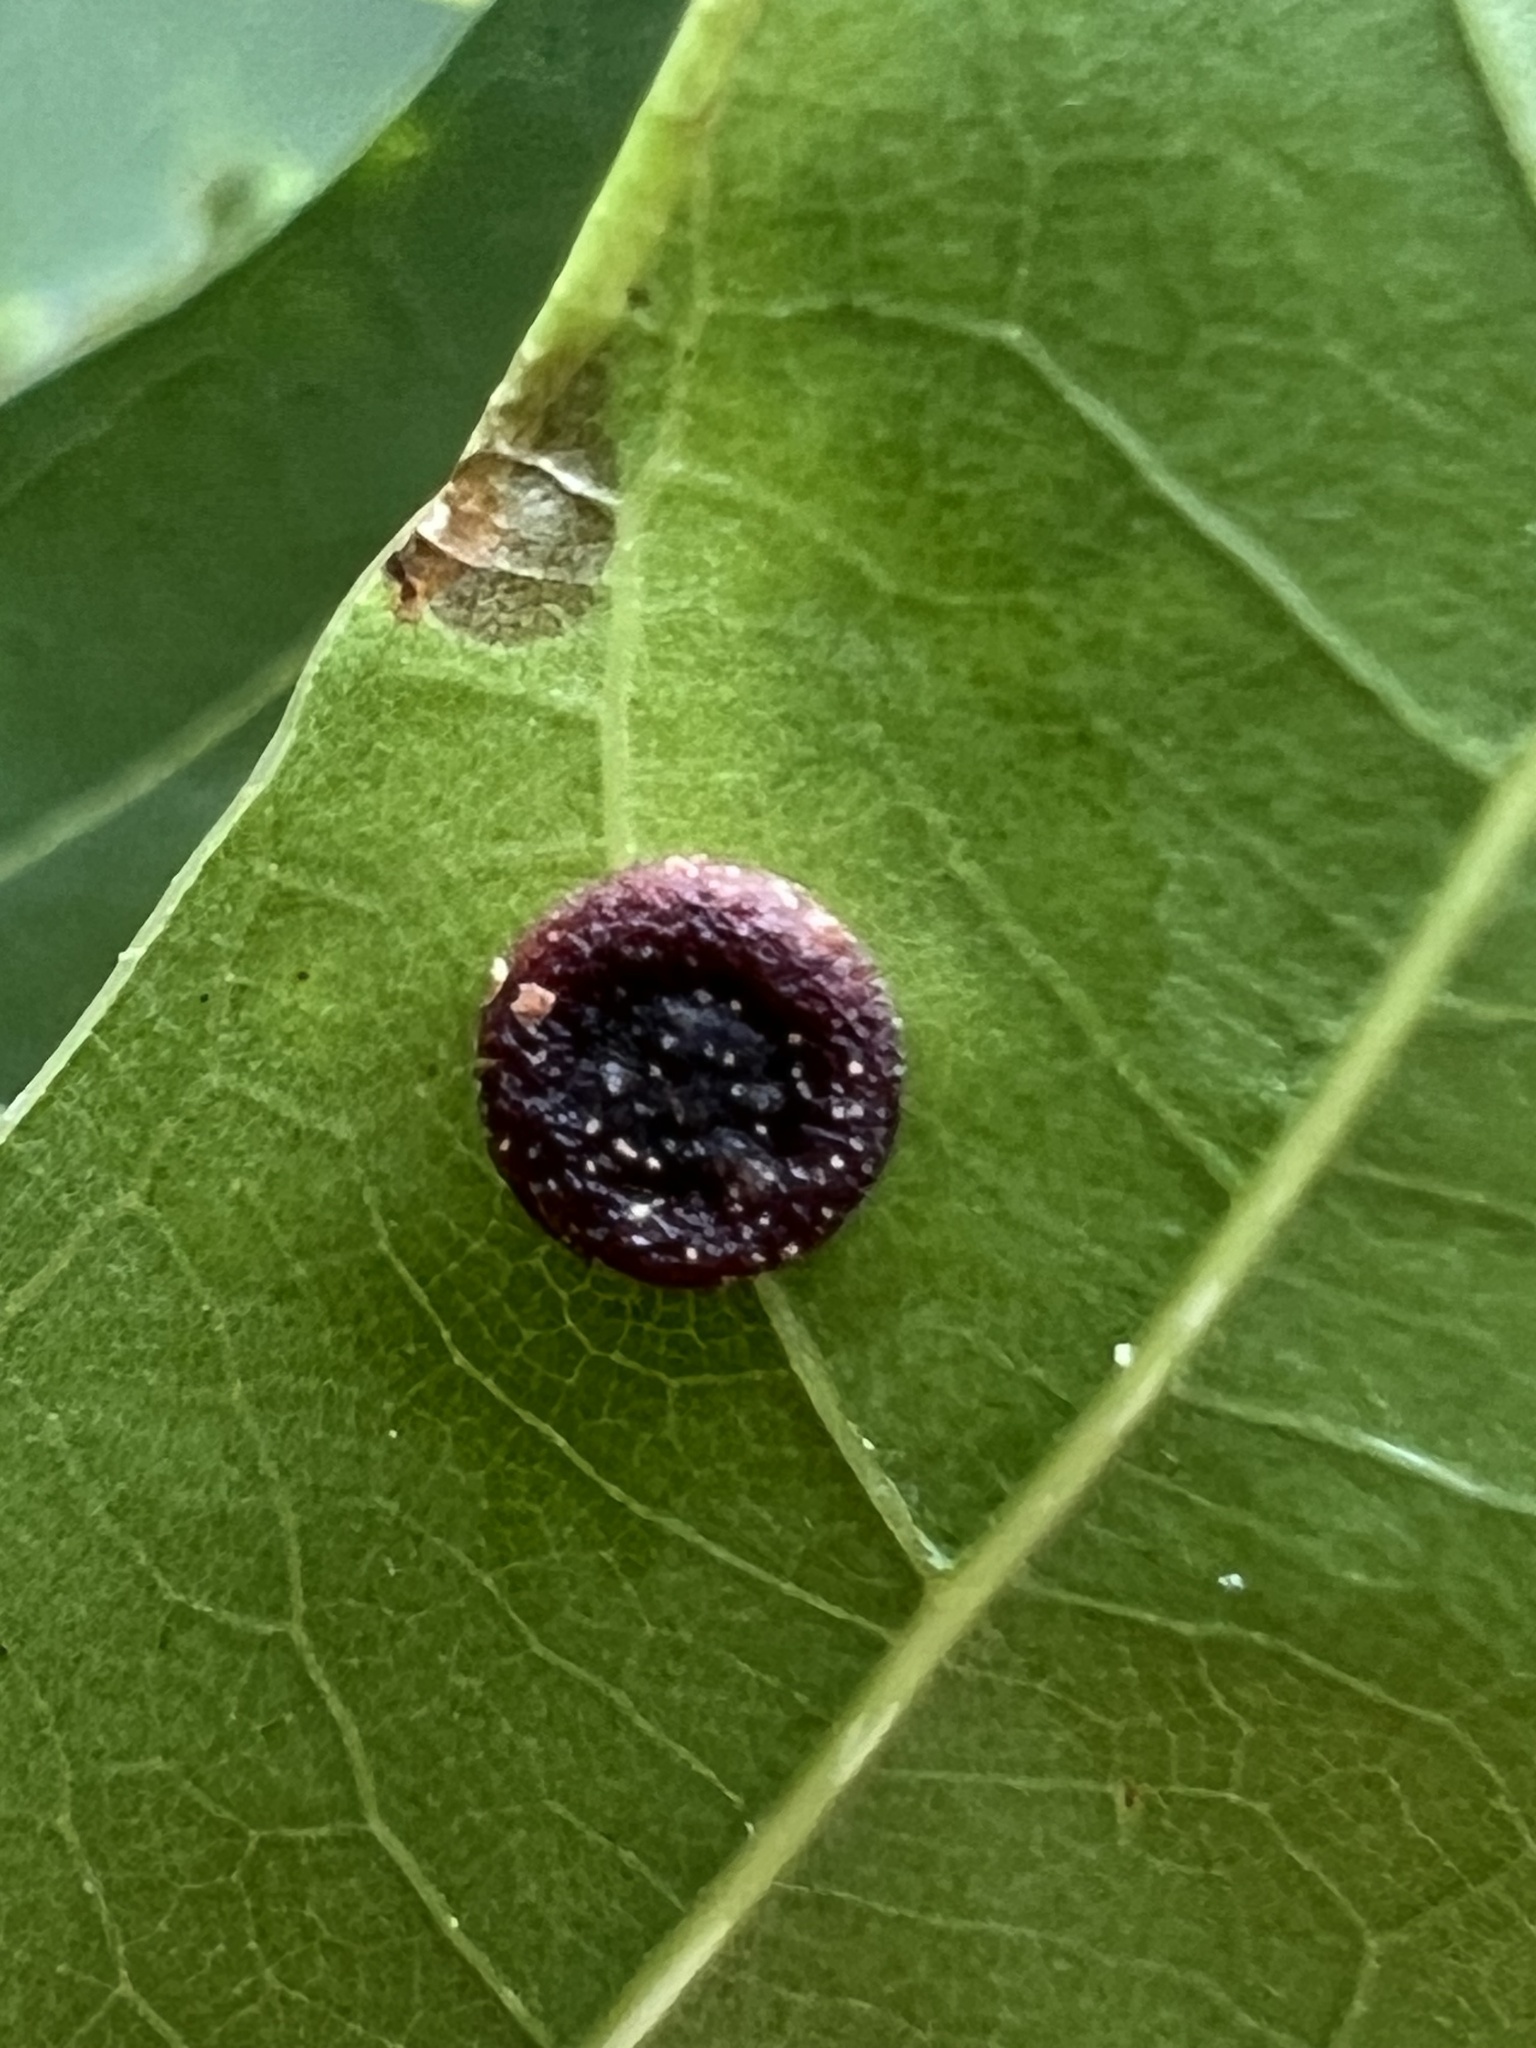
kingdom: Animalia
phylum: Arthropoda
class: Insecta
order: Hymenoptera
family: Cynipidae
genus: Dryocosmus
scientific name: Dryocosmus
